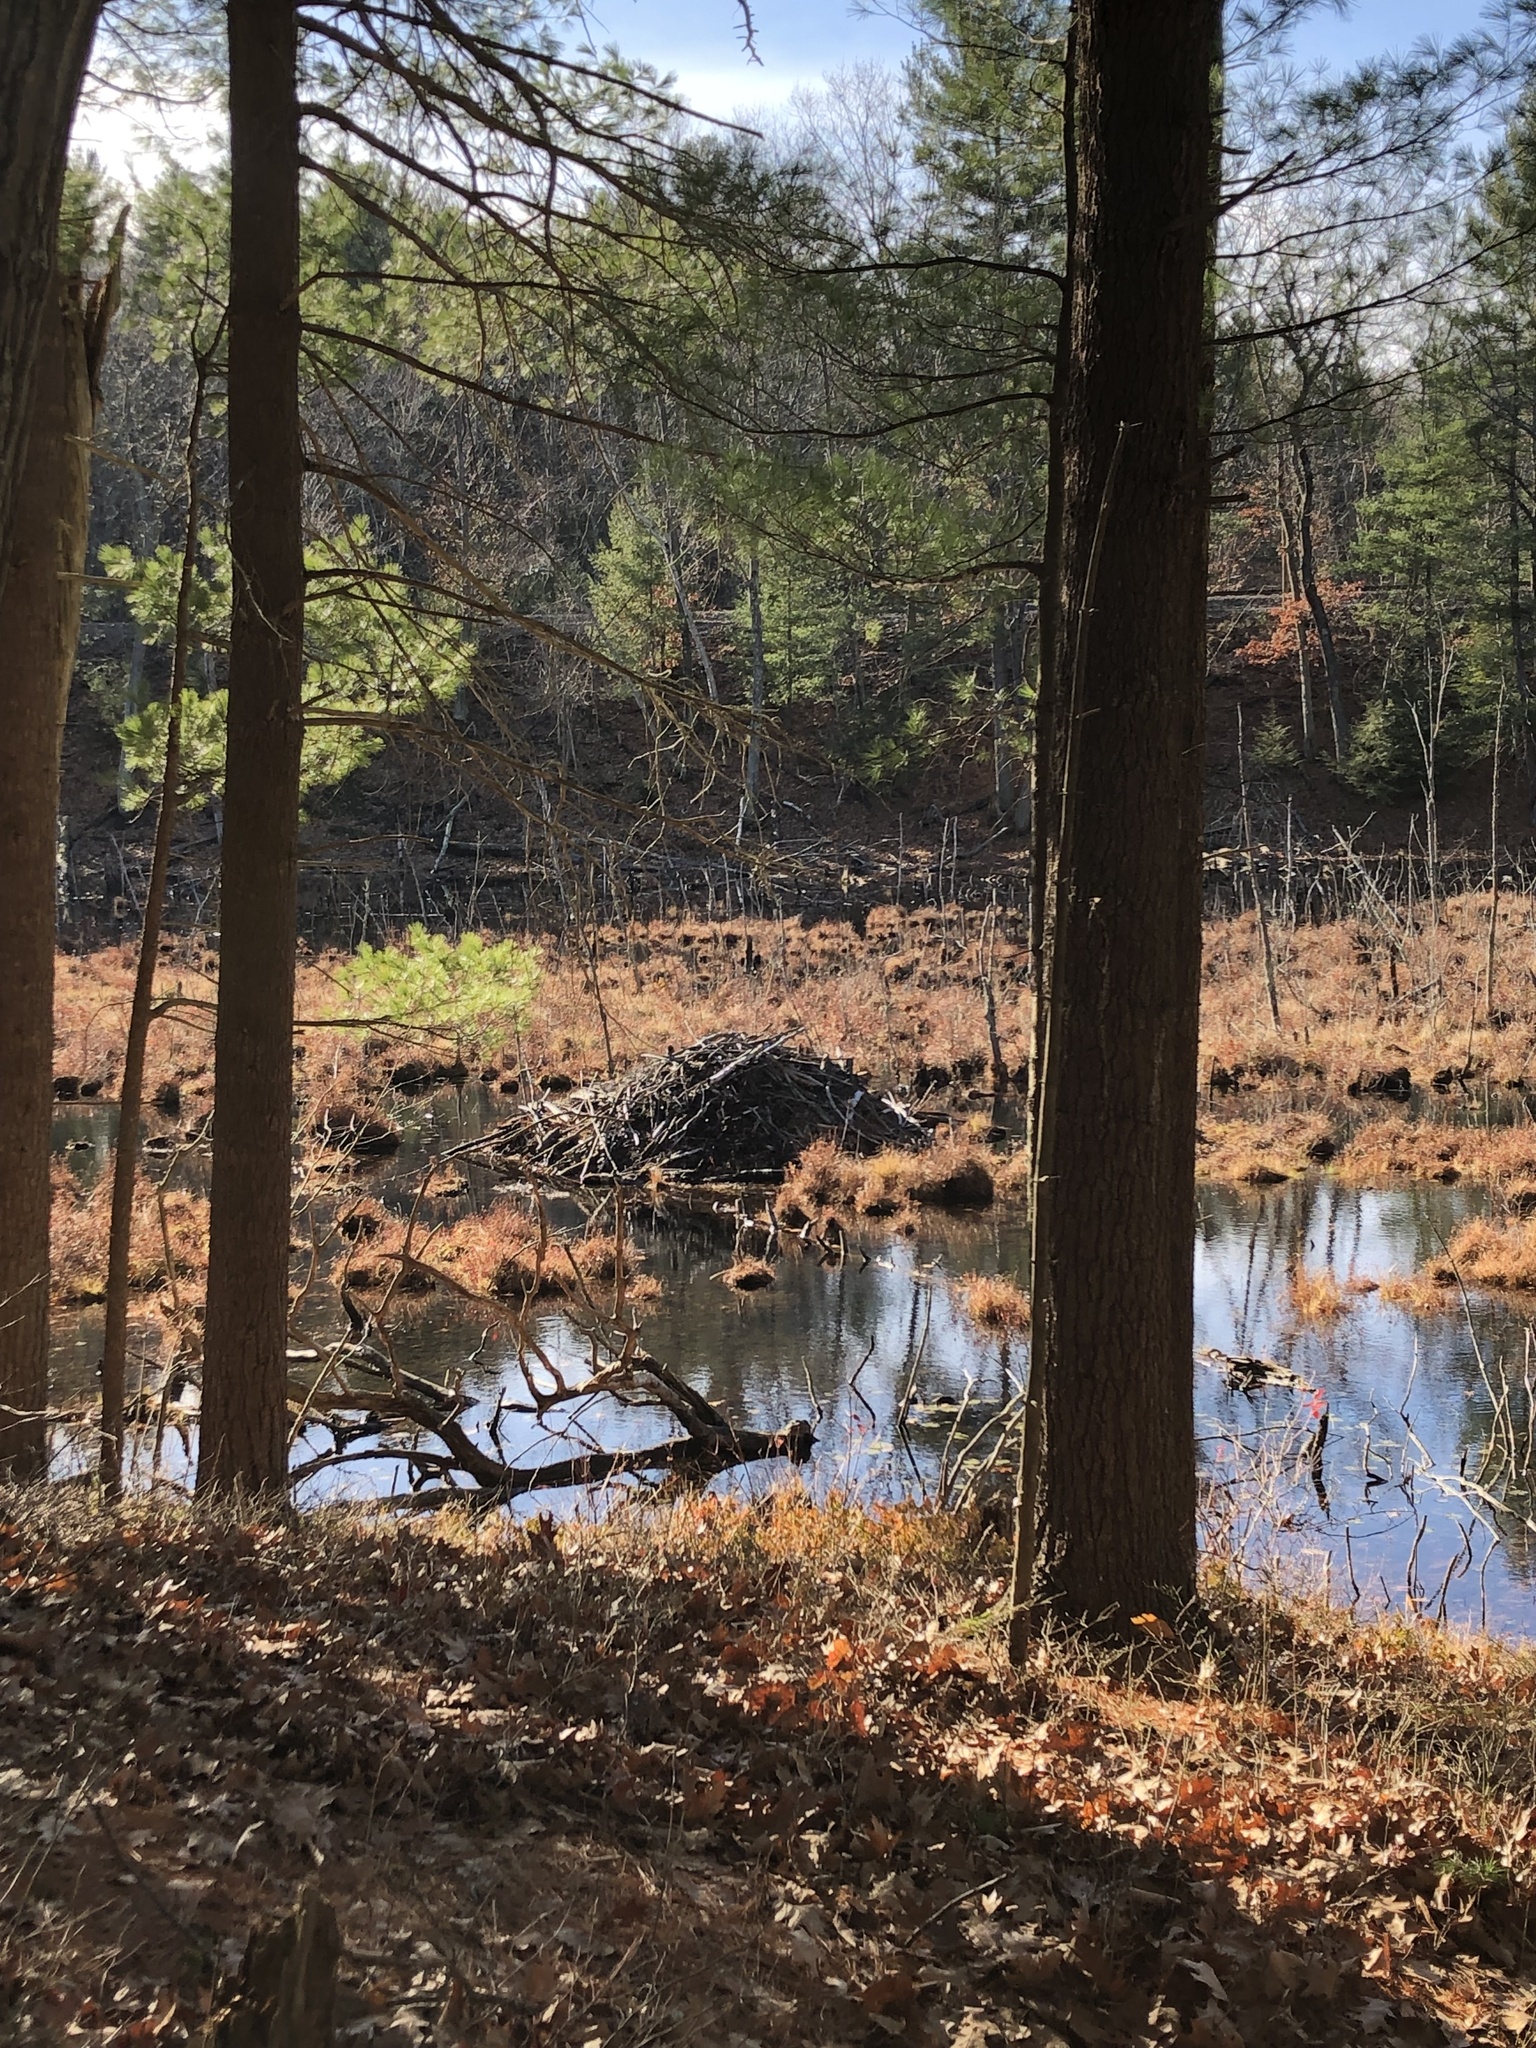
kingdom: Animalia
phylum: Chordata
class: Mammalia
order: Rodentia
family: Castoridae
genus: Castor
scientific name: Castor canadensis
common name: American beaver
